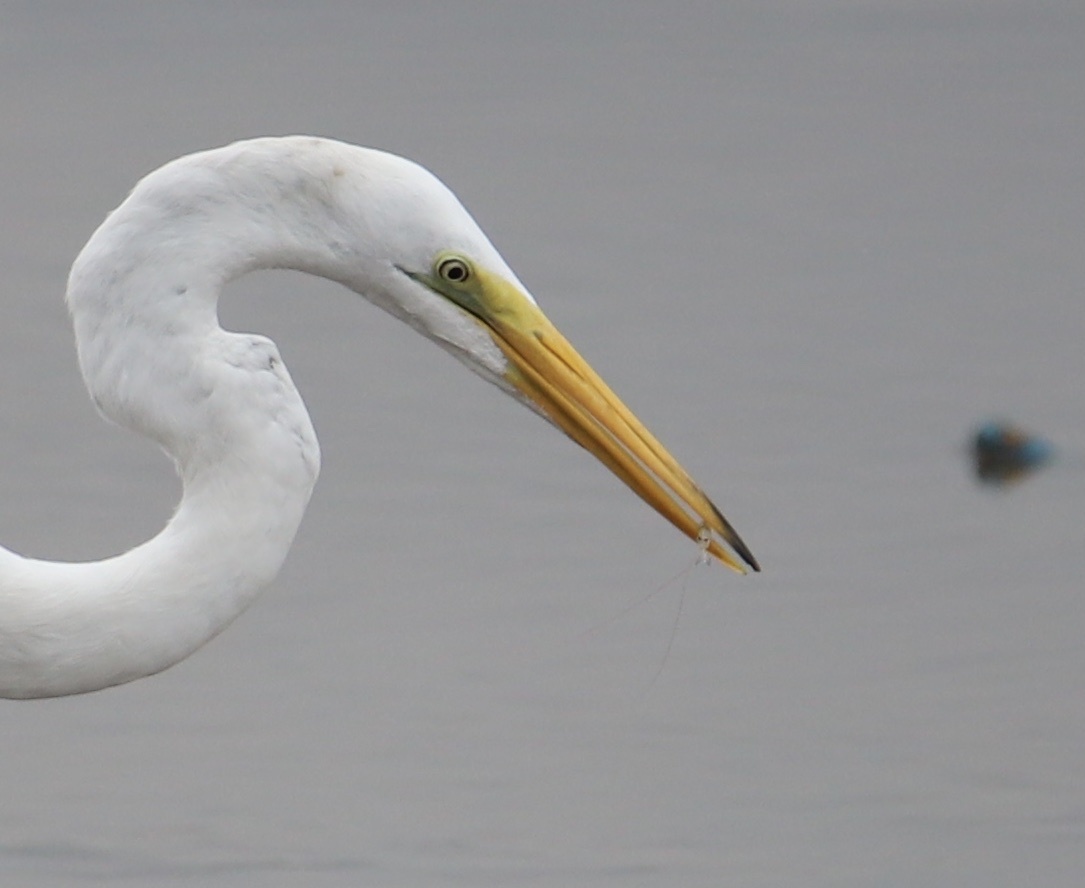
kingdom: Animalia
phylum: Chordata
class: Aves
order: Pelecaniformes
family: Ardeidae
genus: Ardea
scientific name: Ardea alba
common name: Great egret
